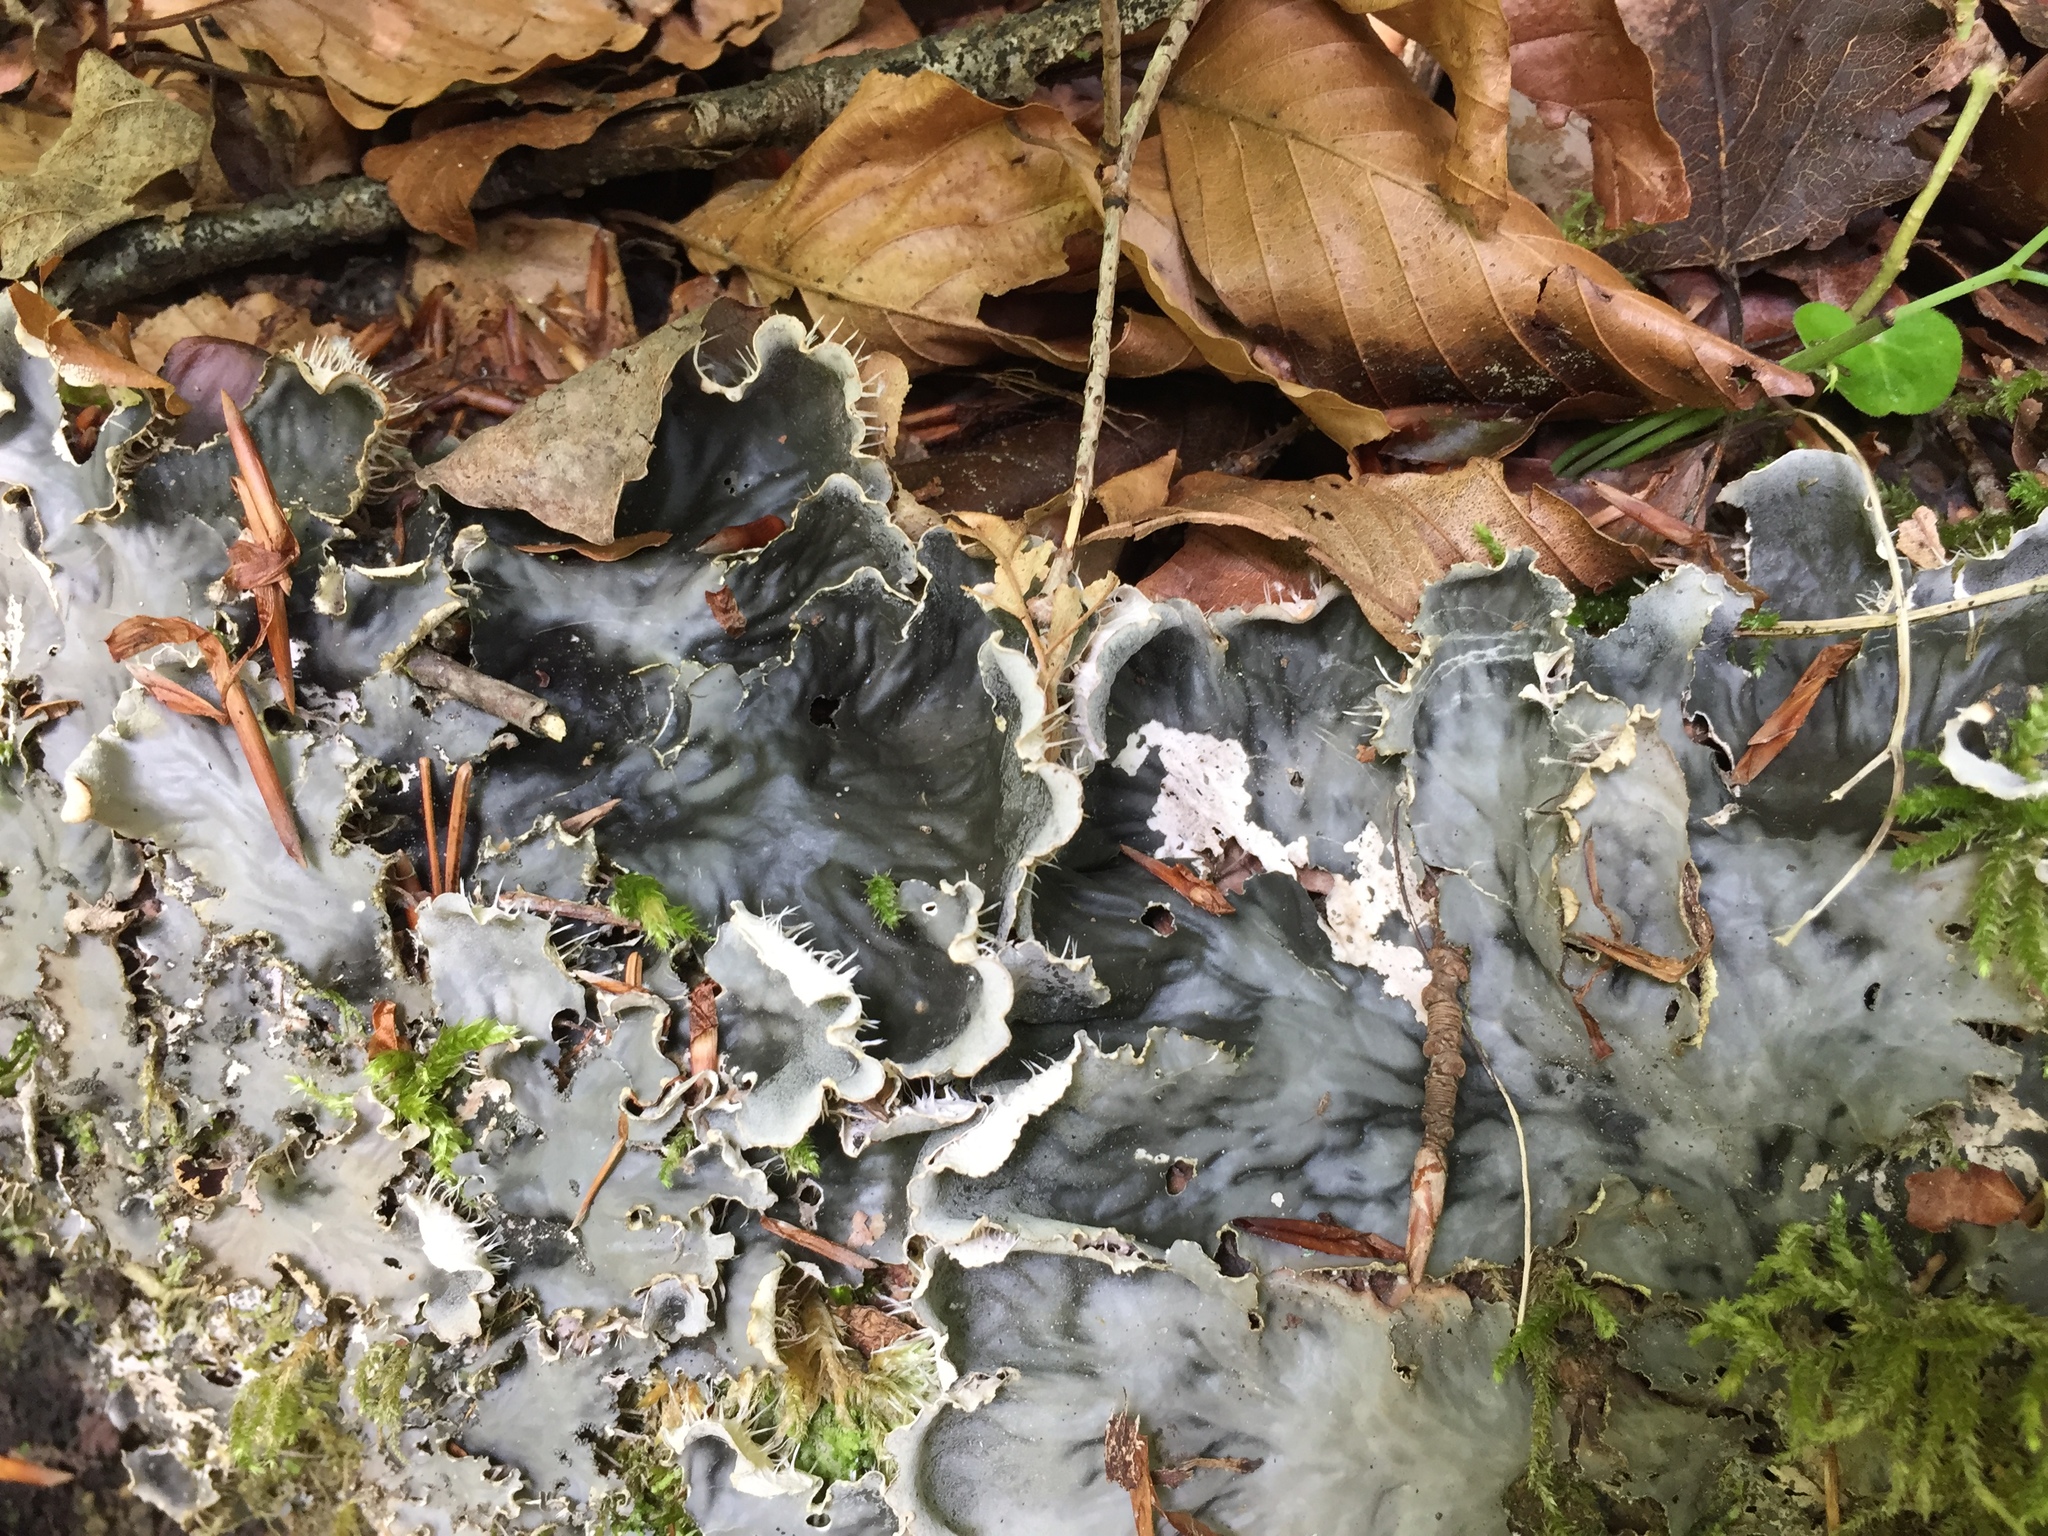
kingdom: Fungi
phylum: Ascomycota
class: Lecanoromycetes
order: Peltigerales
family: Peltigeraceae
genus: Peltigera
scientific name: Peltigera praetextata
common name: Scaly dog-lichen
